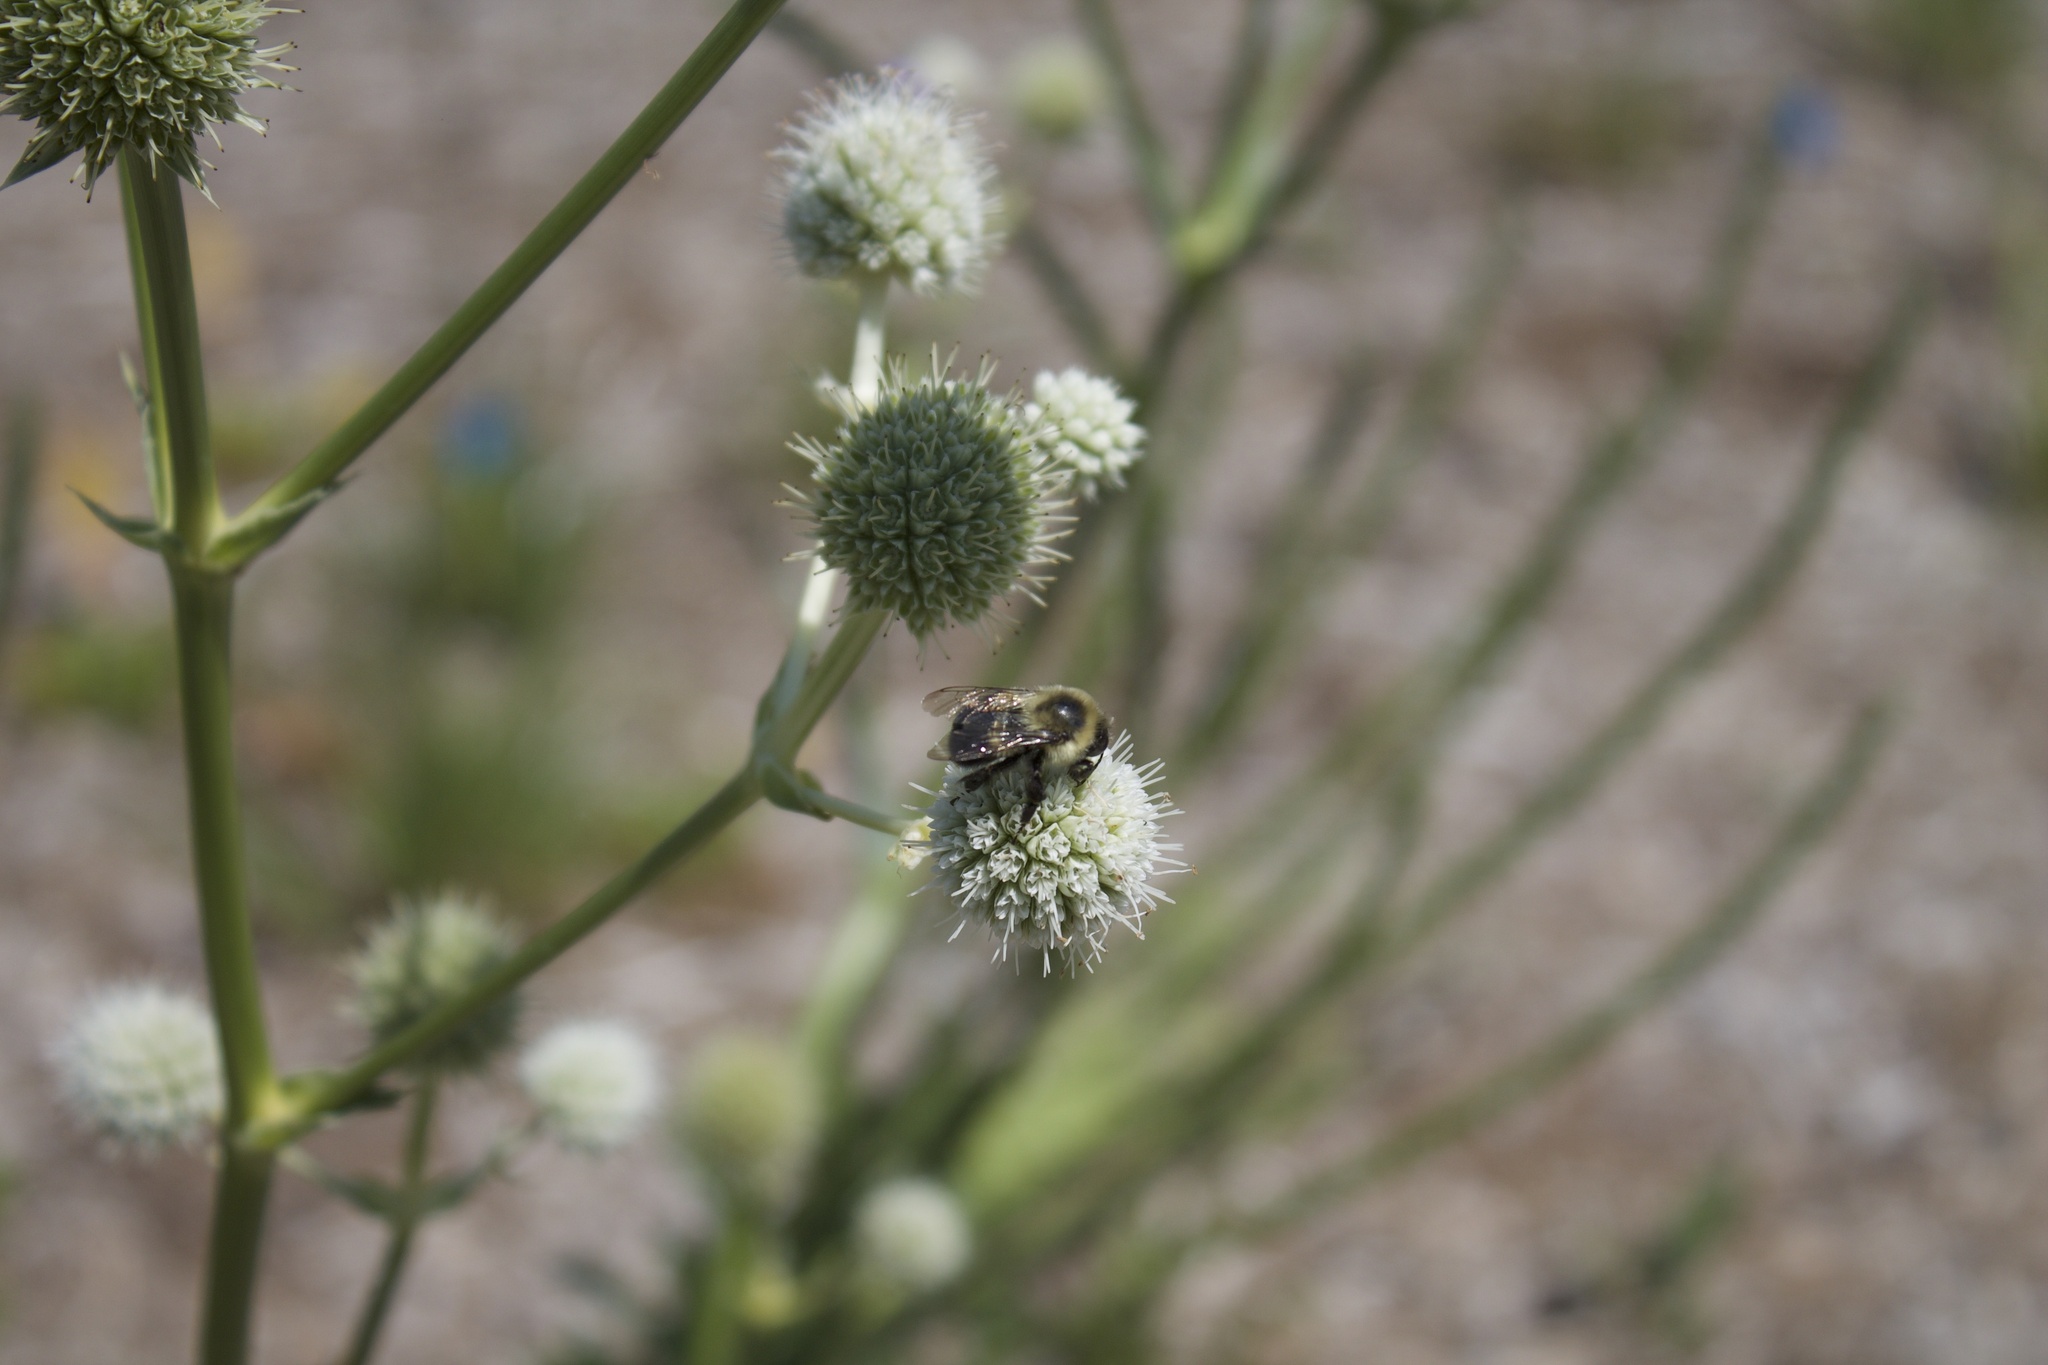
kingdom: Animalia
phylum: Arthropoda
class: Insecta
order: Hymenoptera
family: Apidae
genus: Bombus
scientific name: Bombus impatiens
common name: Common eastern bumble bee
